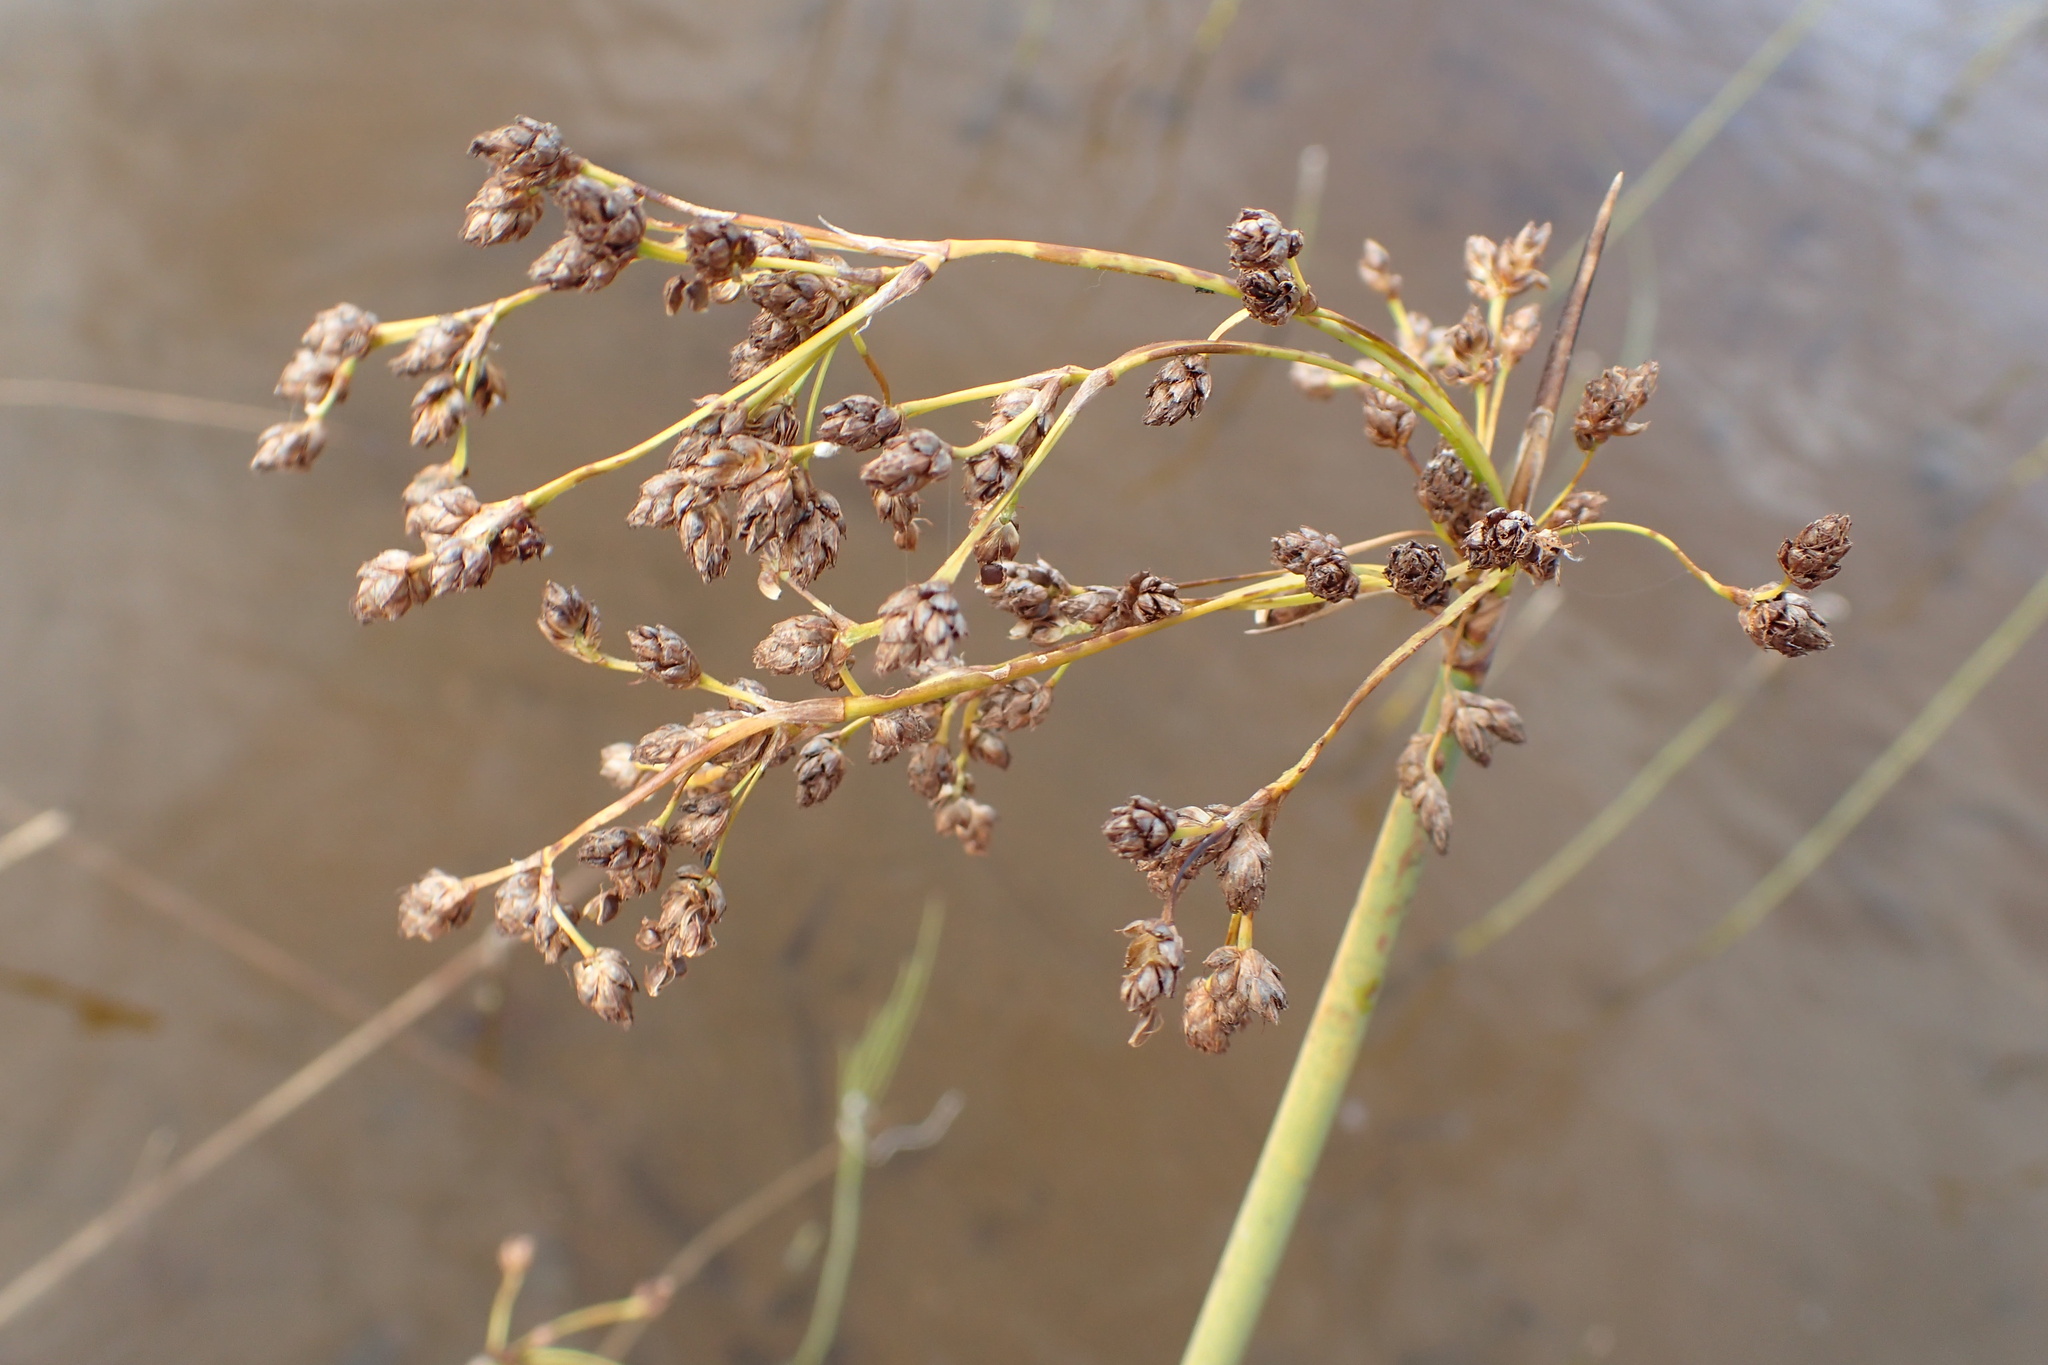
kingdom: Plantae
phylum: Tracheophyta
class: Liliopsida
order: Poales
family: Cyperaceae
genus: Schoenoplectus
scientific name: Schoenoplectus tabernaemontani
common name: Grey club-rush
